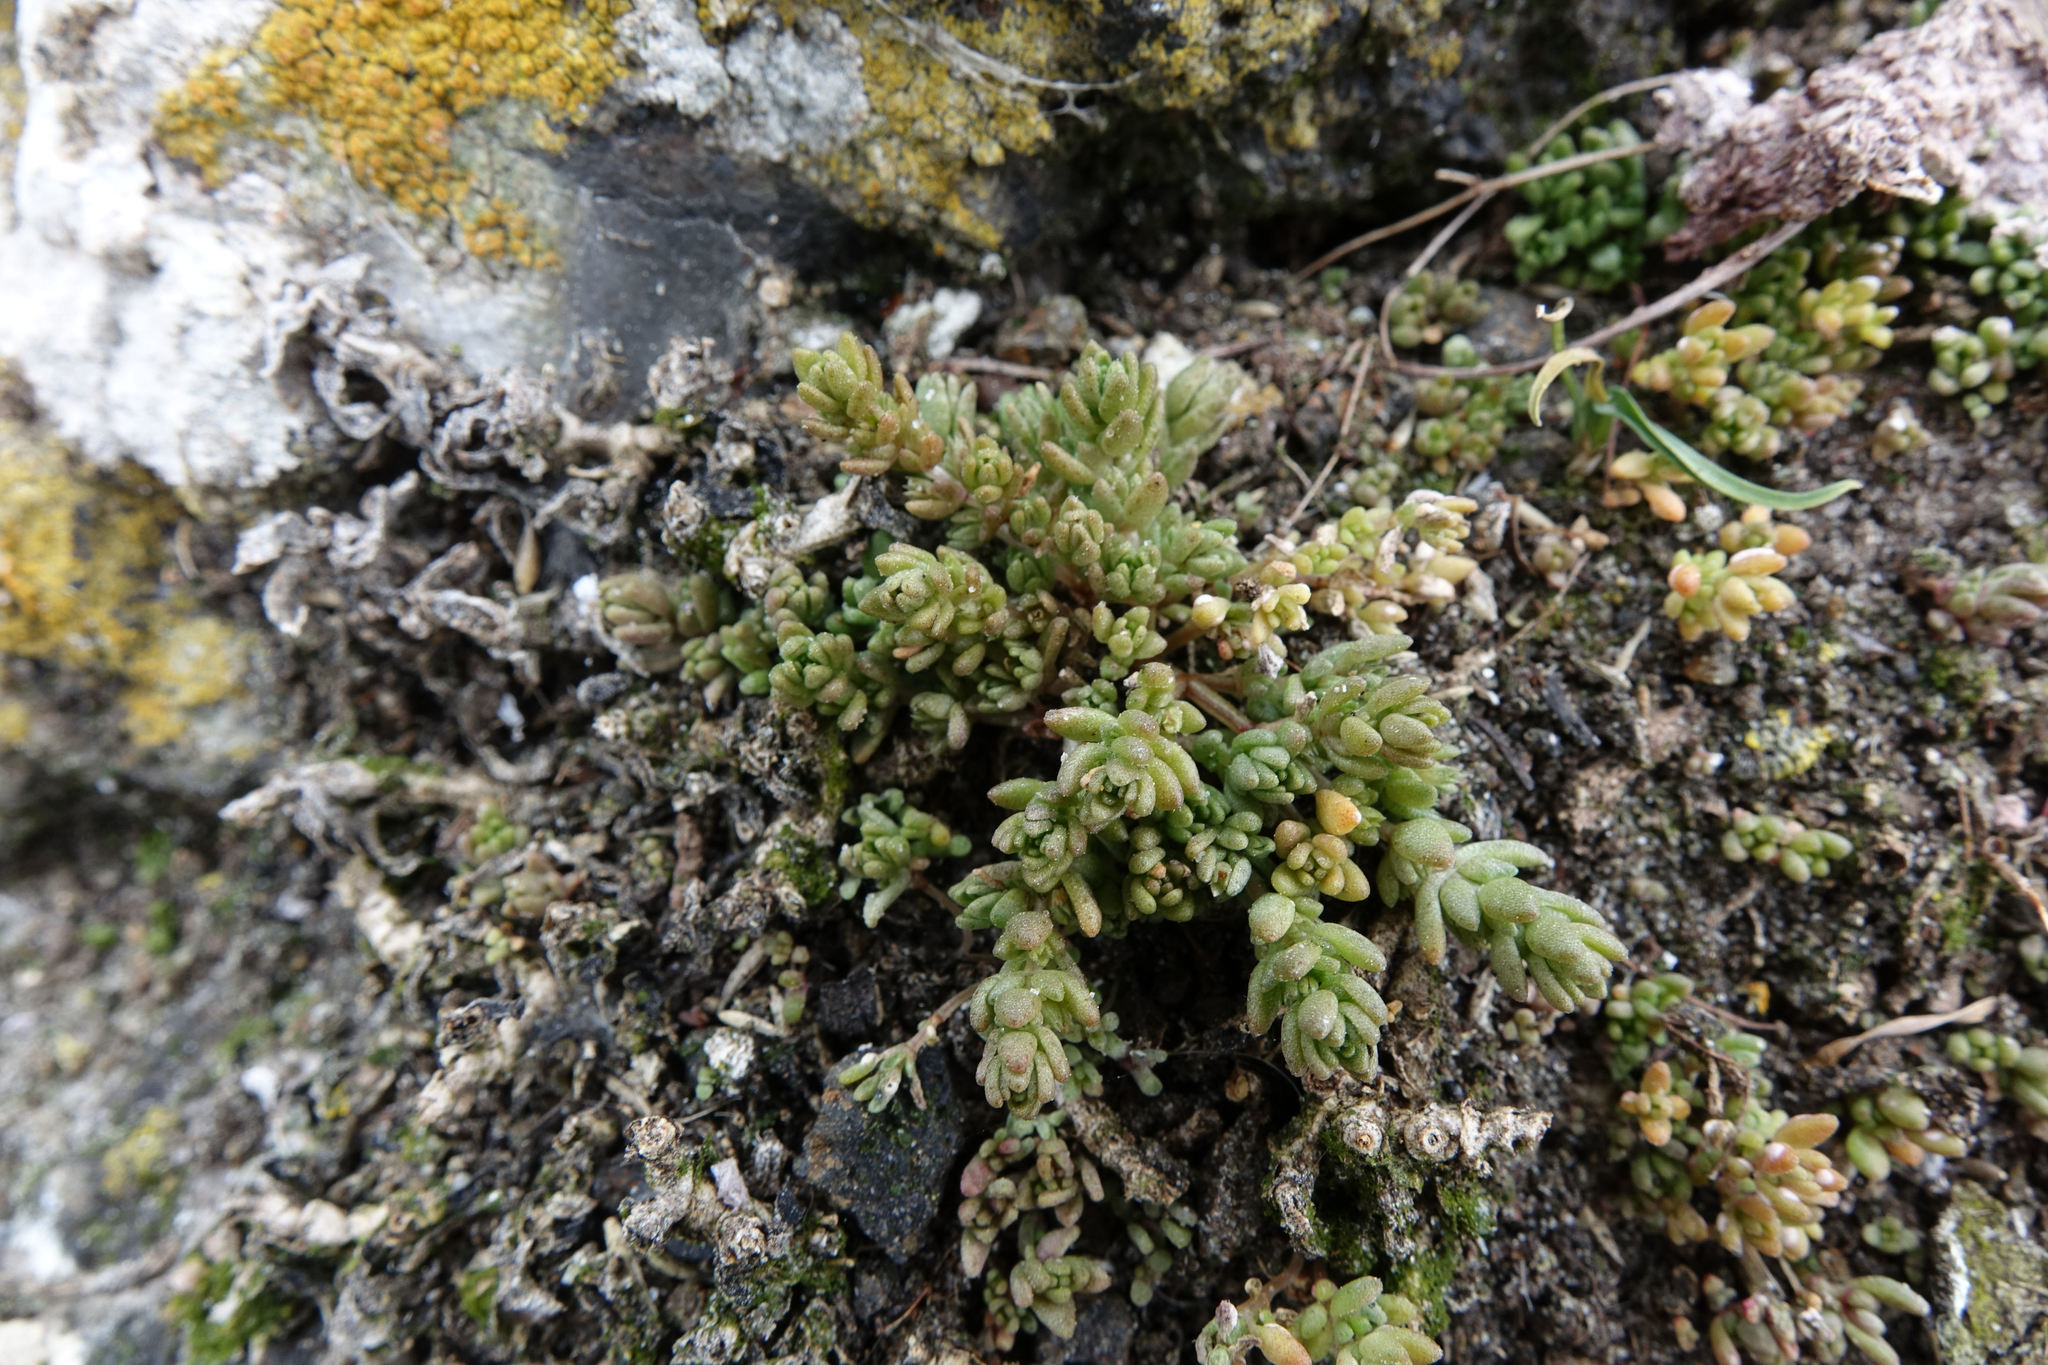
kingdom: Plantae
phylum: Tracheophyta
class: Magnoliopsida
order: Saxifragales
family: Crassulaceae
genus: Crassula
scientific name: Crassula sieberiana
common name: Siberian pygmyweed
